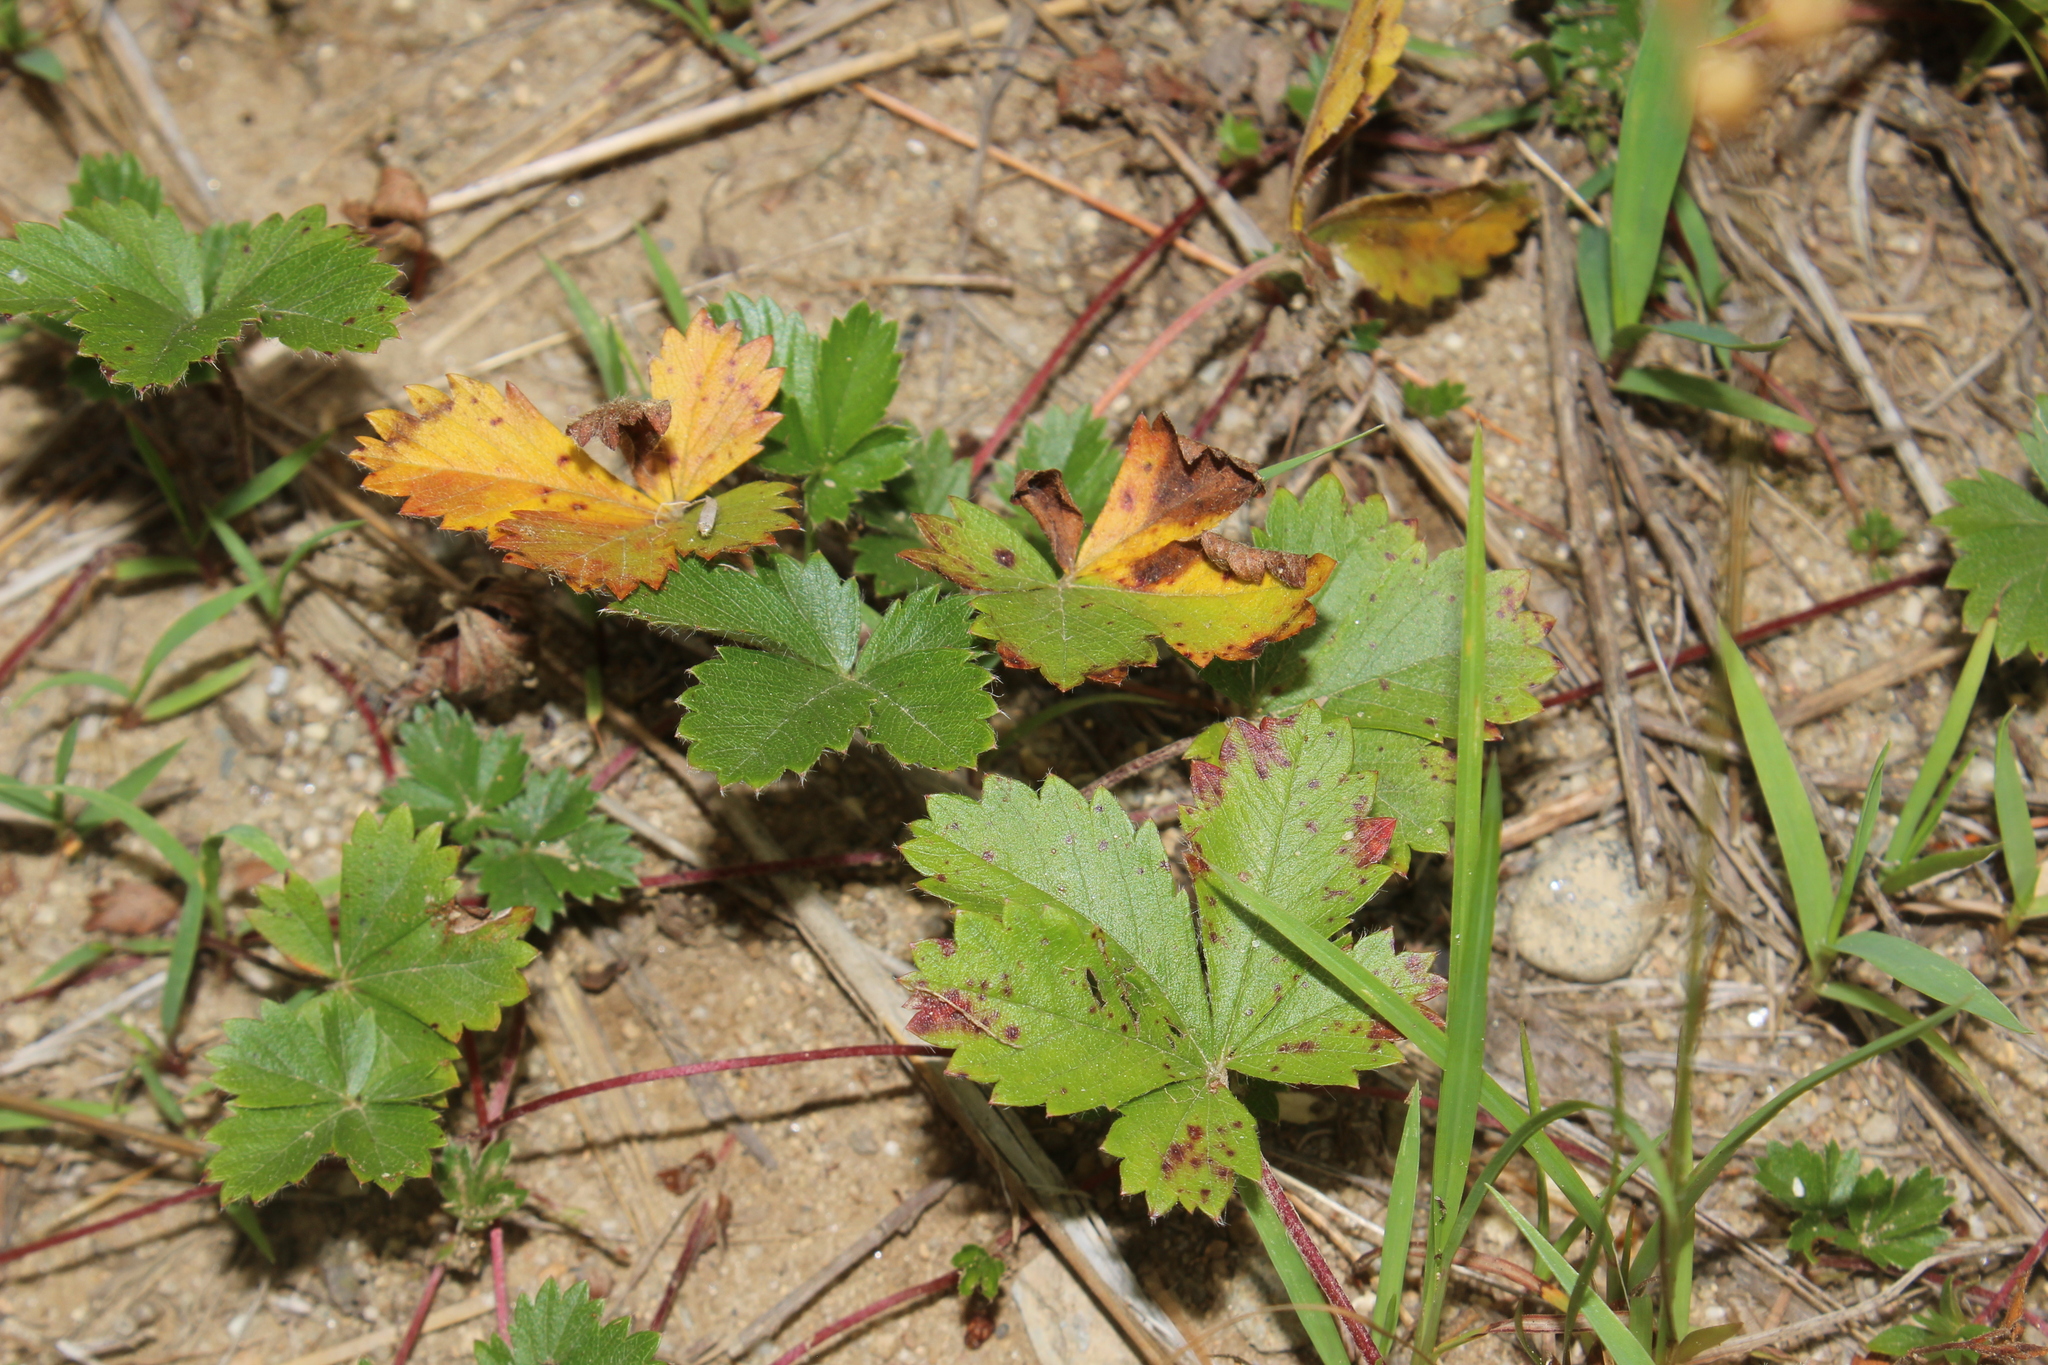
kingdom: Plantae
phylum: Tracheophyta
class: Magnoliopsida
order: Rosales
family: Rosaceae
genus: Potentilla
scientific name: Potentilla canadensis
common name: Canada cinquefoil
